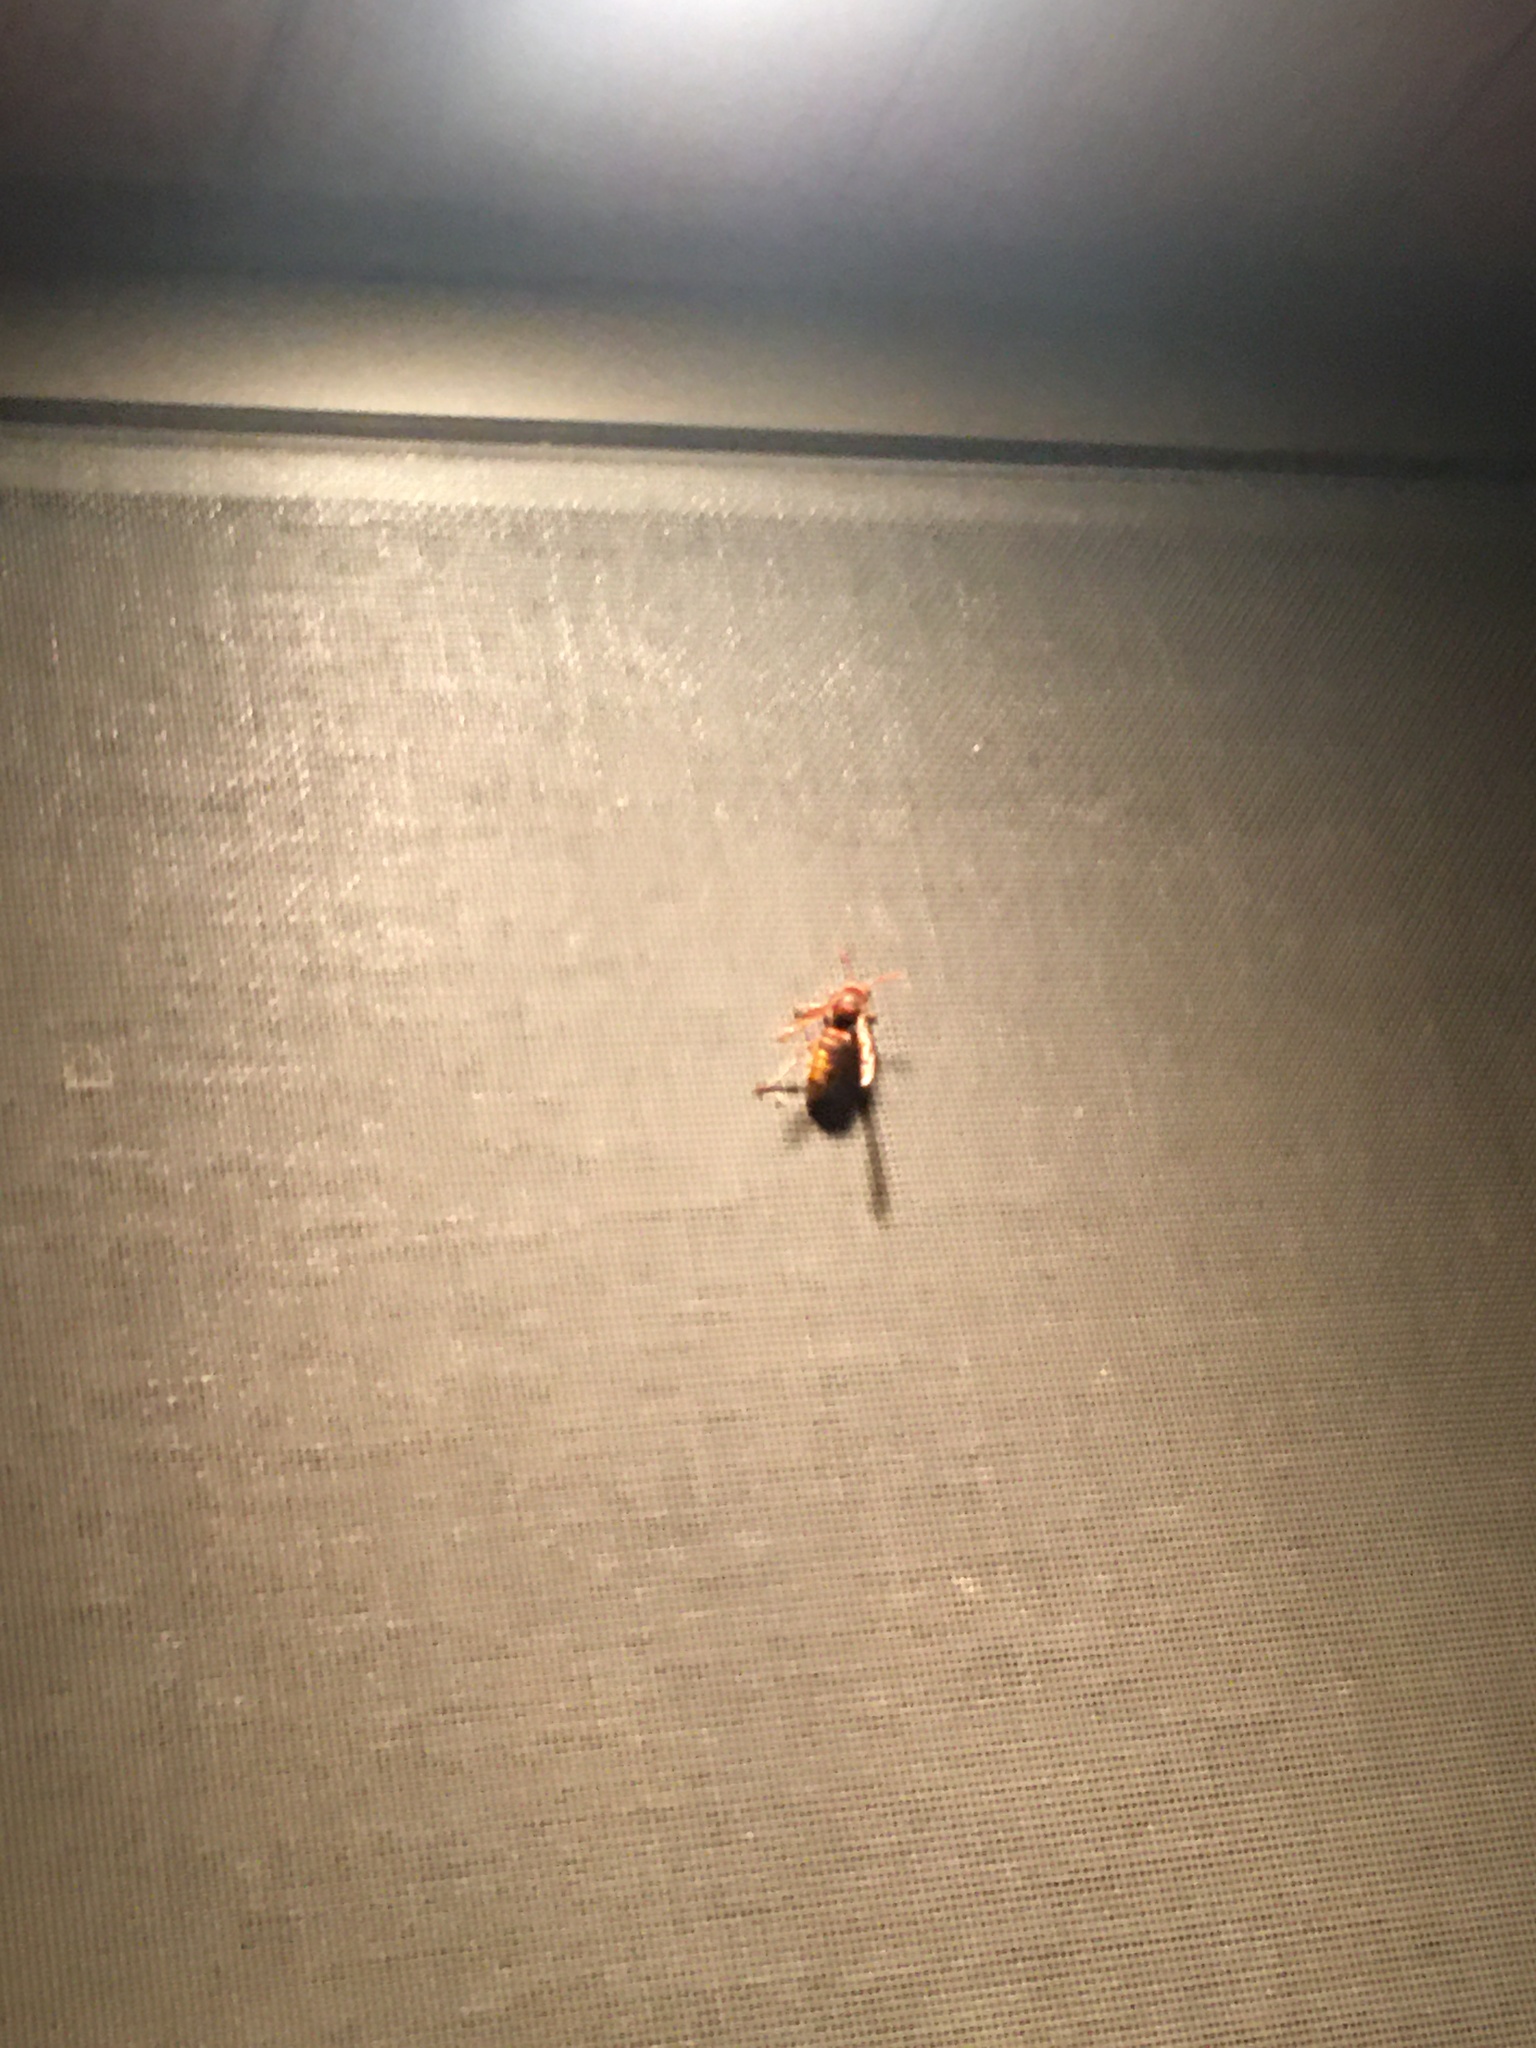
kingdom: Animalia
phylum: Arthropoda
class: Insecta
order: Hymenoptera
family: Vespidae
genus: Vespa
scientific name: Vespa crabro
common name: Hornet
